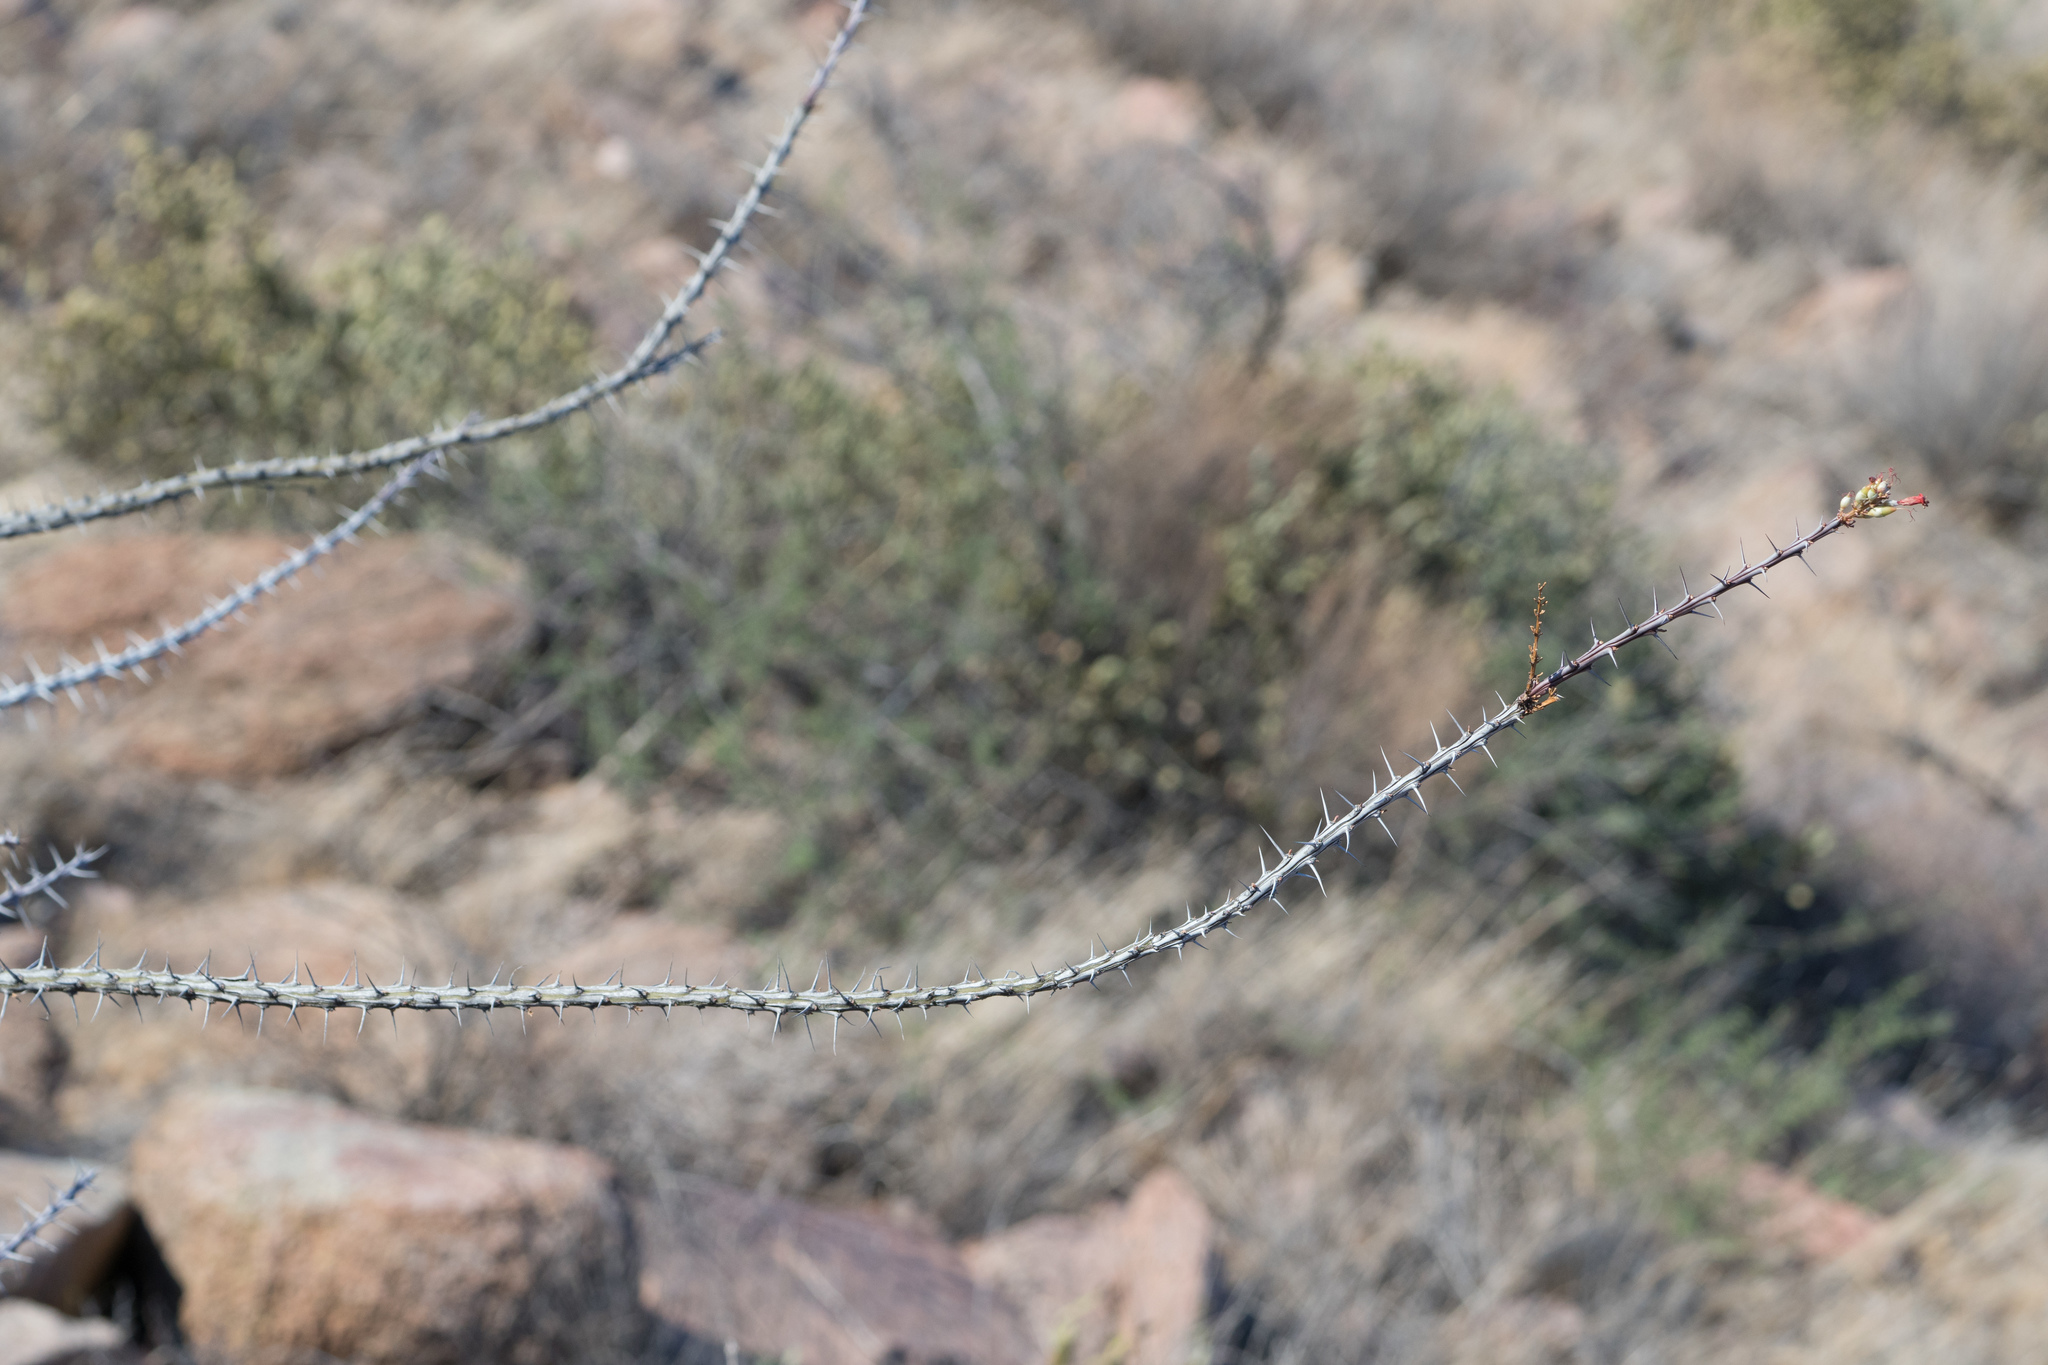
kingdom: Plantae
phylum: Tracheophyta
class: Magnoliopsida
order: Ericales
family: Fouquieriaceae
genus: Fouquieria
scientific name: Fouquieria splendens
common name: Vine-cactus
